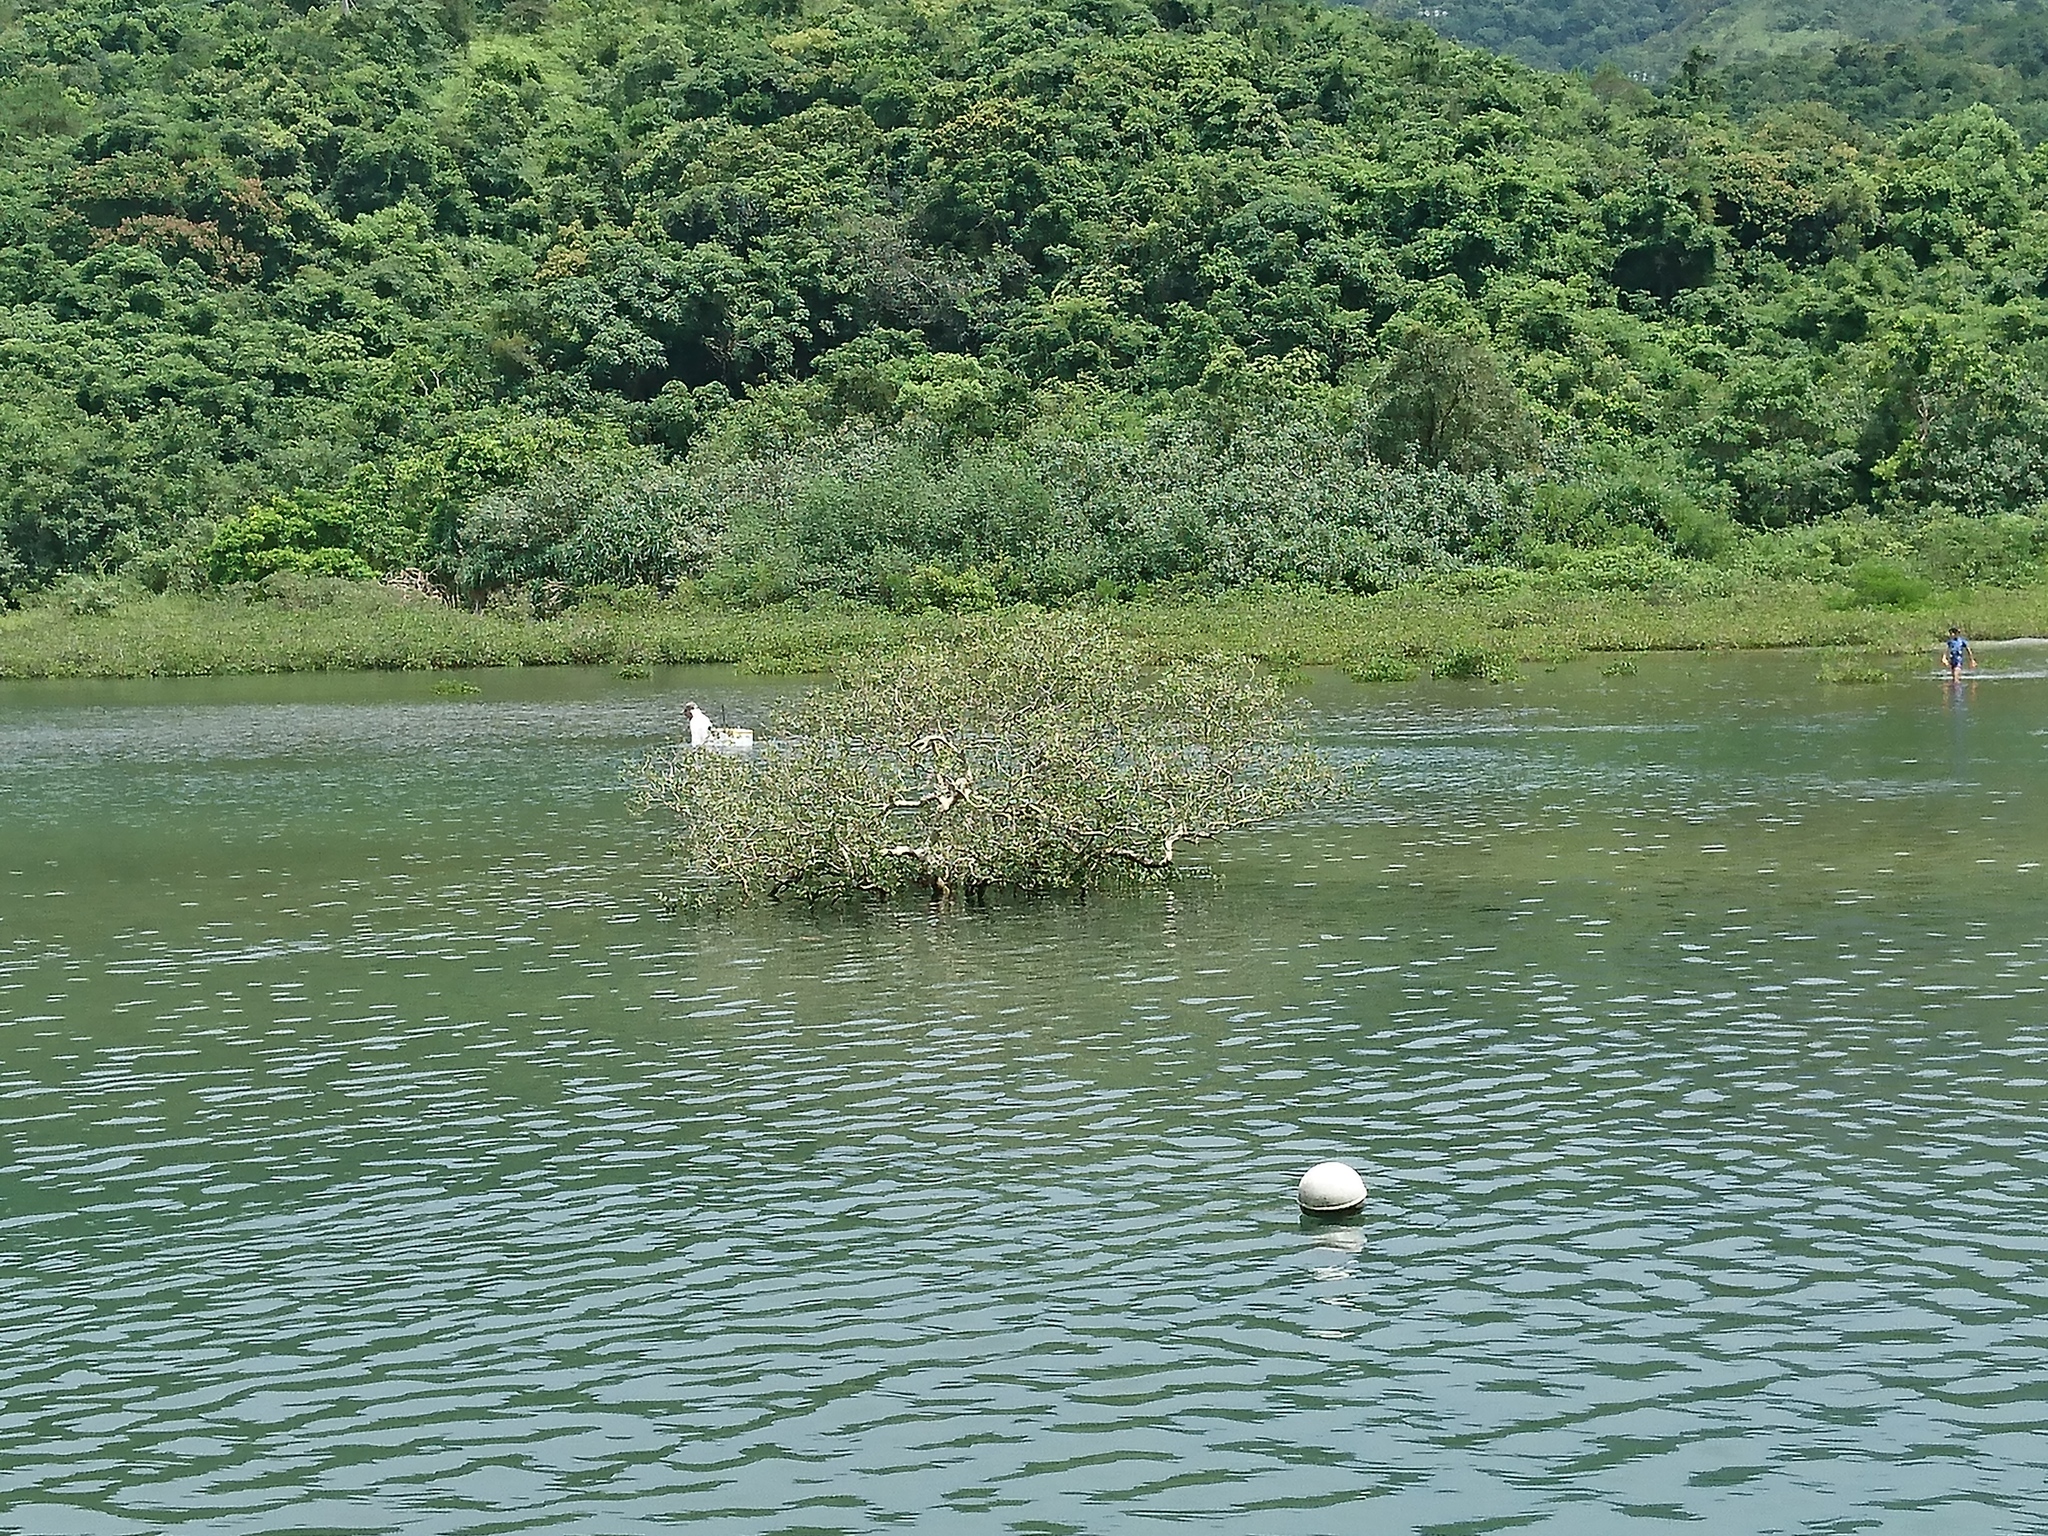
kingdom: Plantae
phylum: Tracheophyta
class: Magnoliopsida
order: Lamiales
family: Acanthaceae
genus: Avicennia
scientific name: Avicennia marina
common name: Gray mangrove
